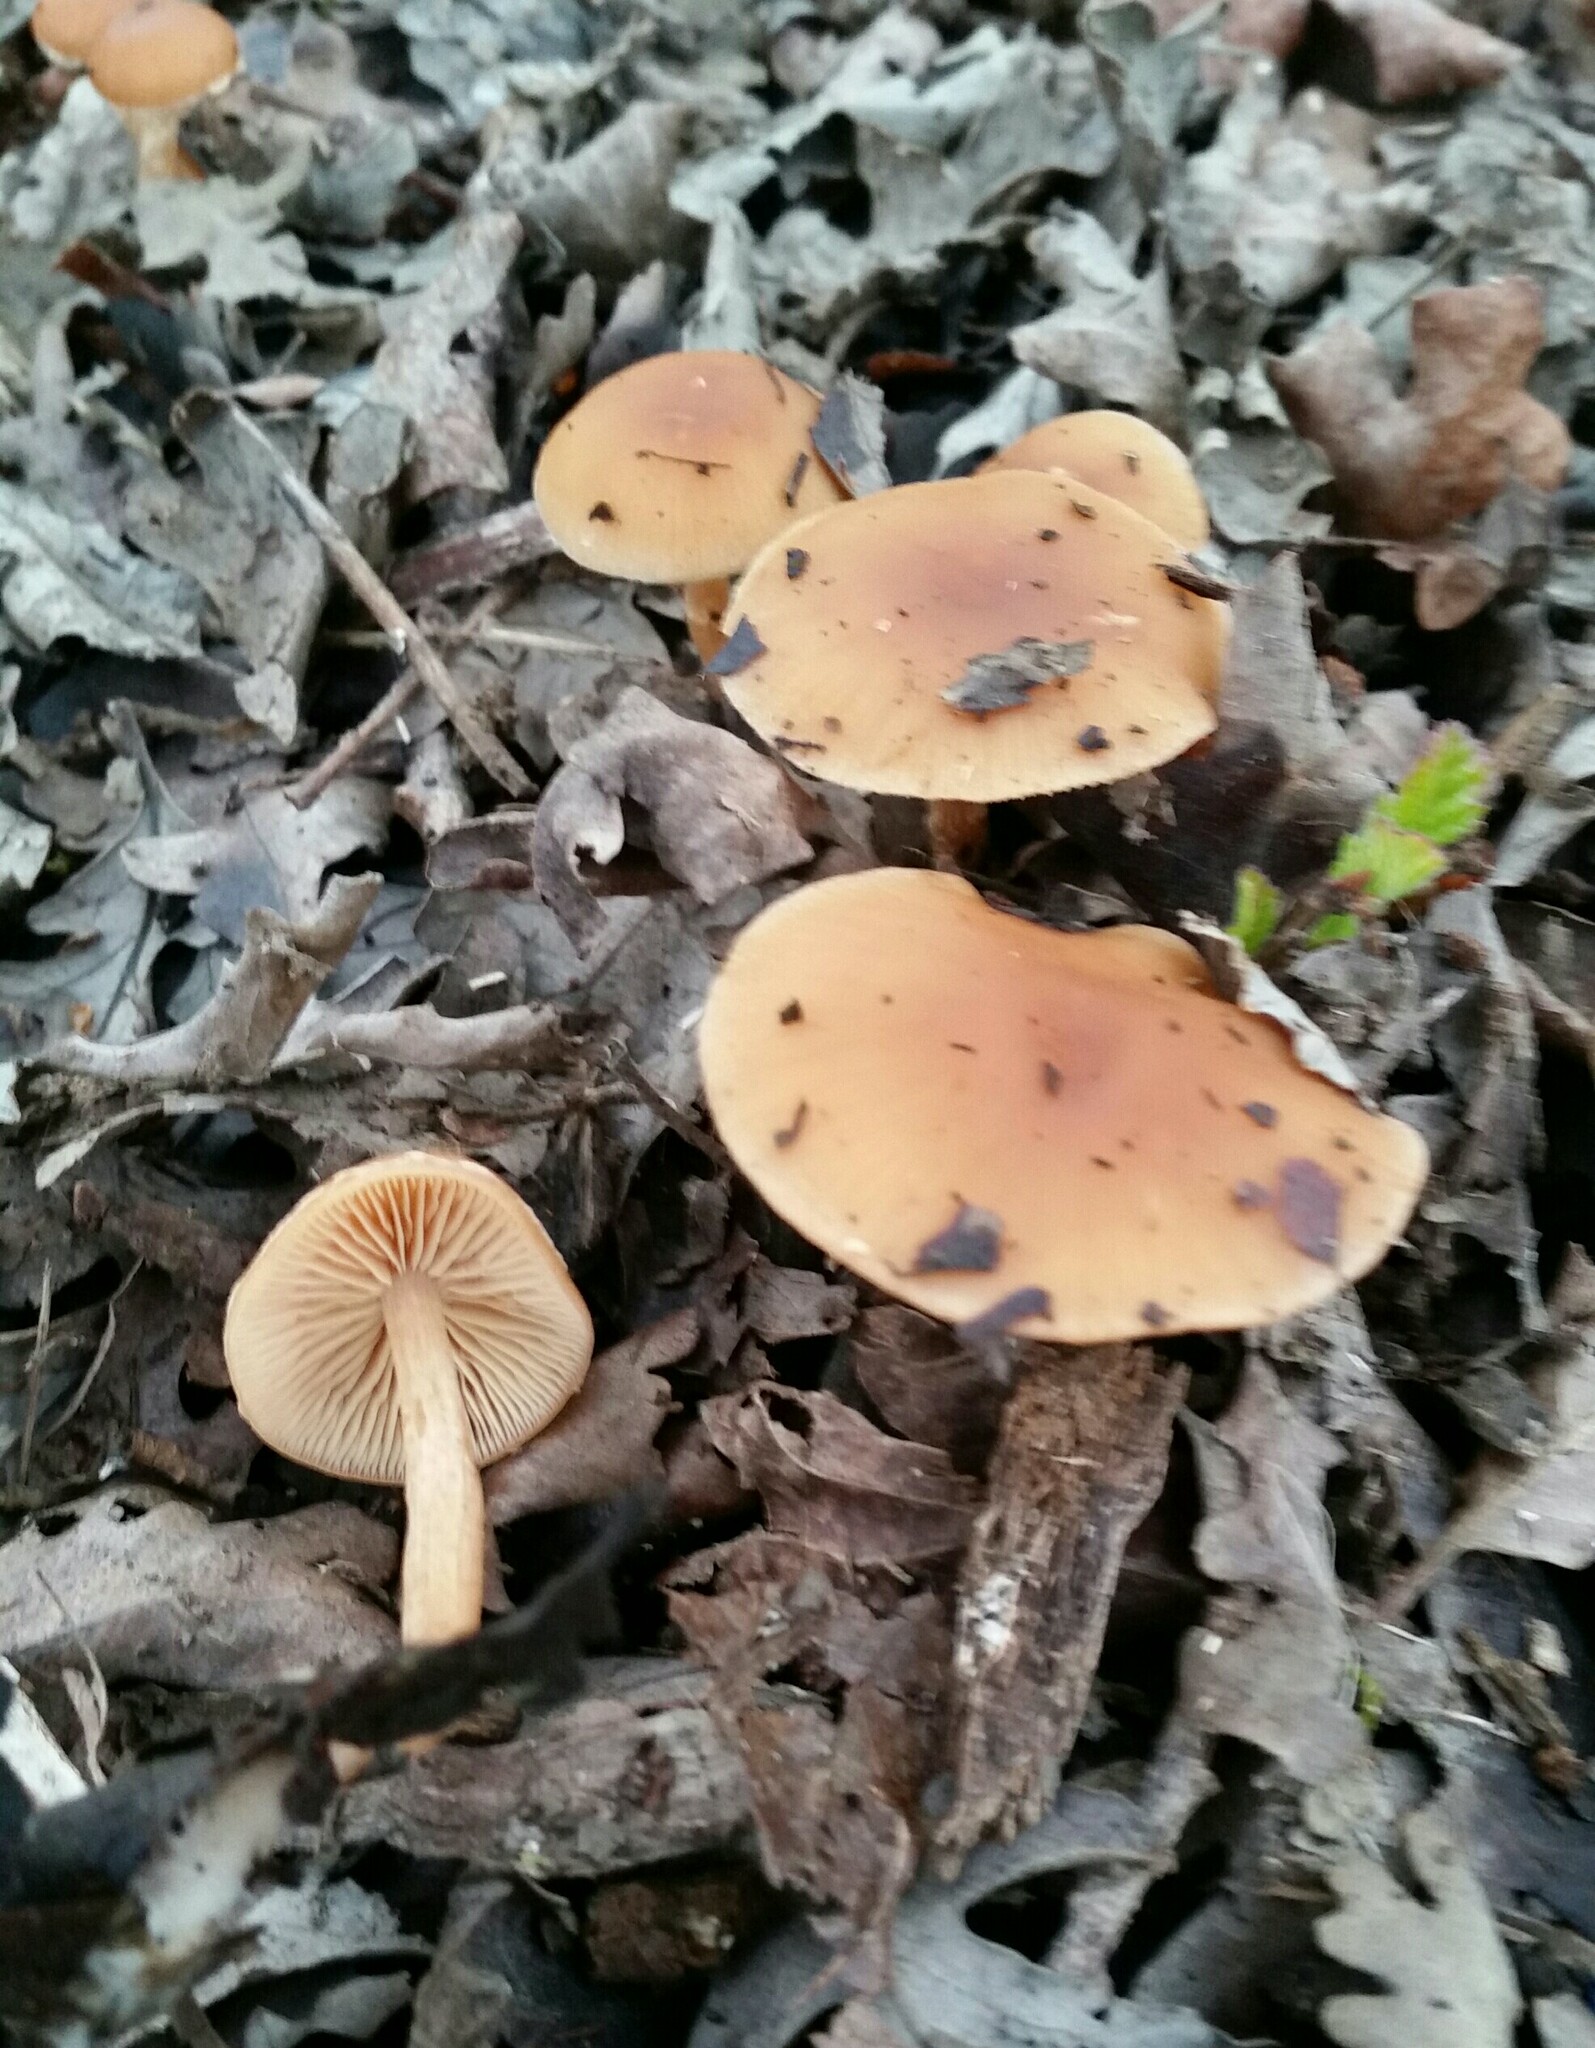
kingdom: Fungi
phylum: Basidiomycota
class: Agaricomycetes
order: Agaricales
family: Tubariaceae
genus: Tubaria
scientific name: Tubaria furfuracea
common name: Scurfy twiglet
